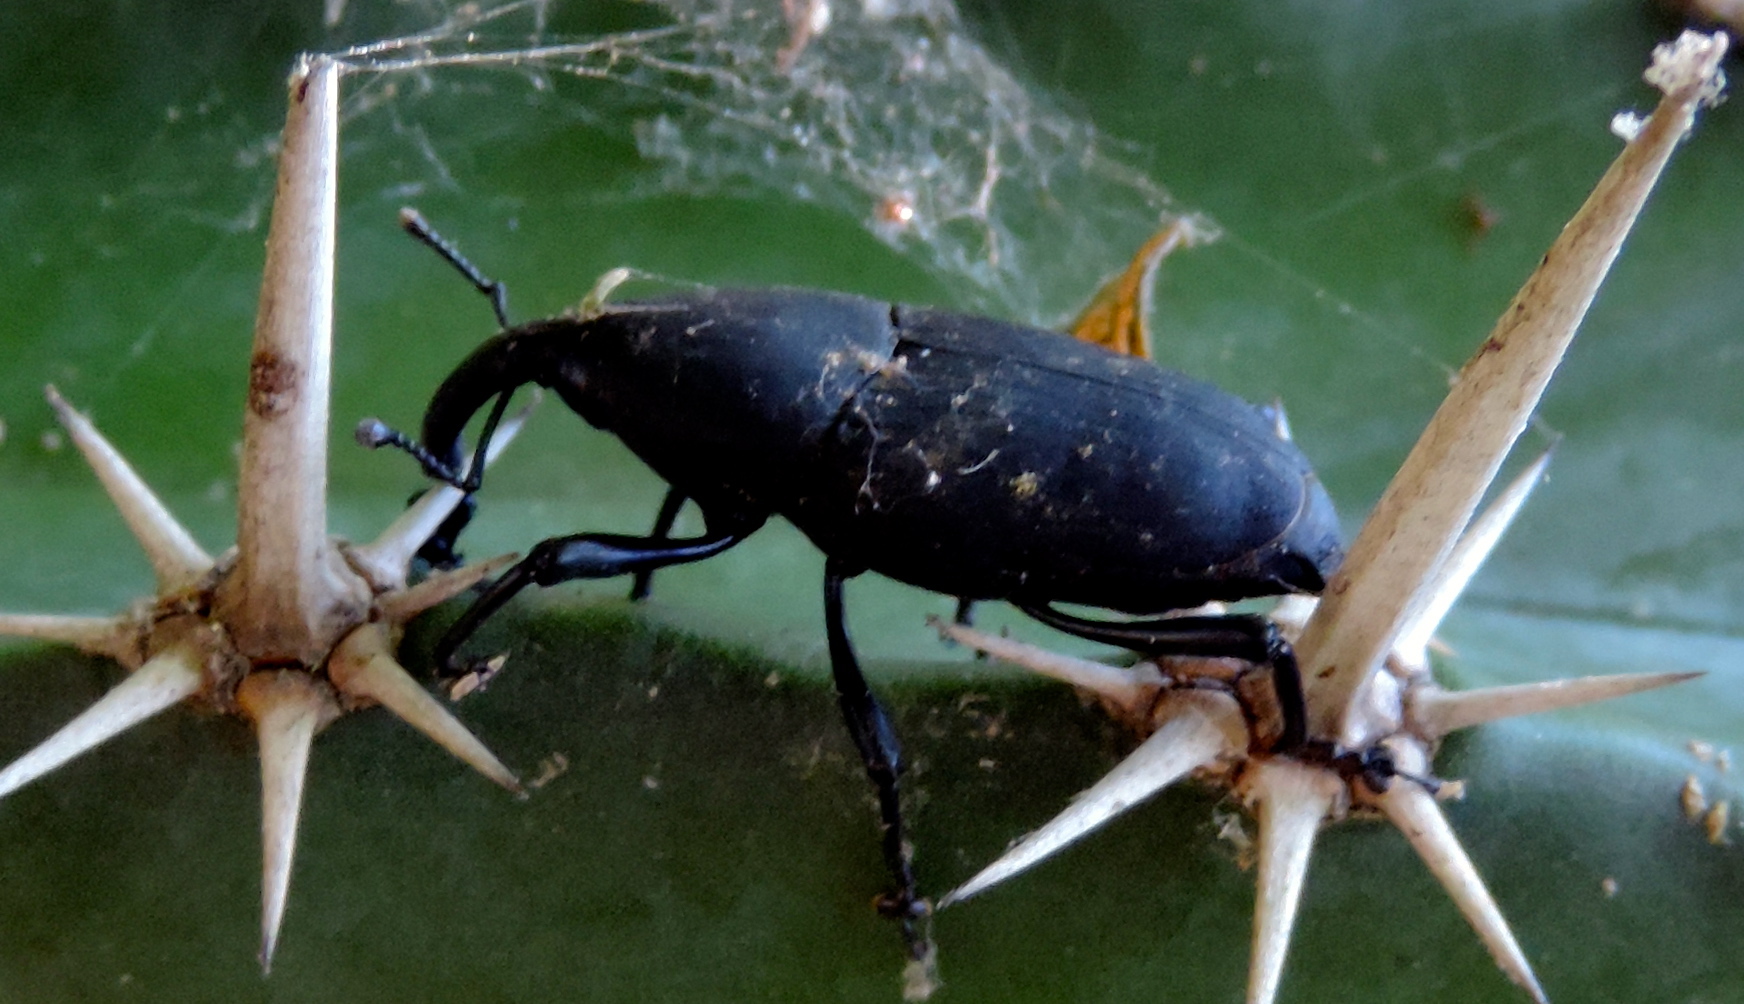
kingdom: Animalia
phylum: Arthropoda
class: Insecta
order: Coleoptera
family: Dryophthoridae
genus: Cactophagus
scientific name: Cactophagus spinolae
